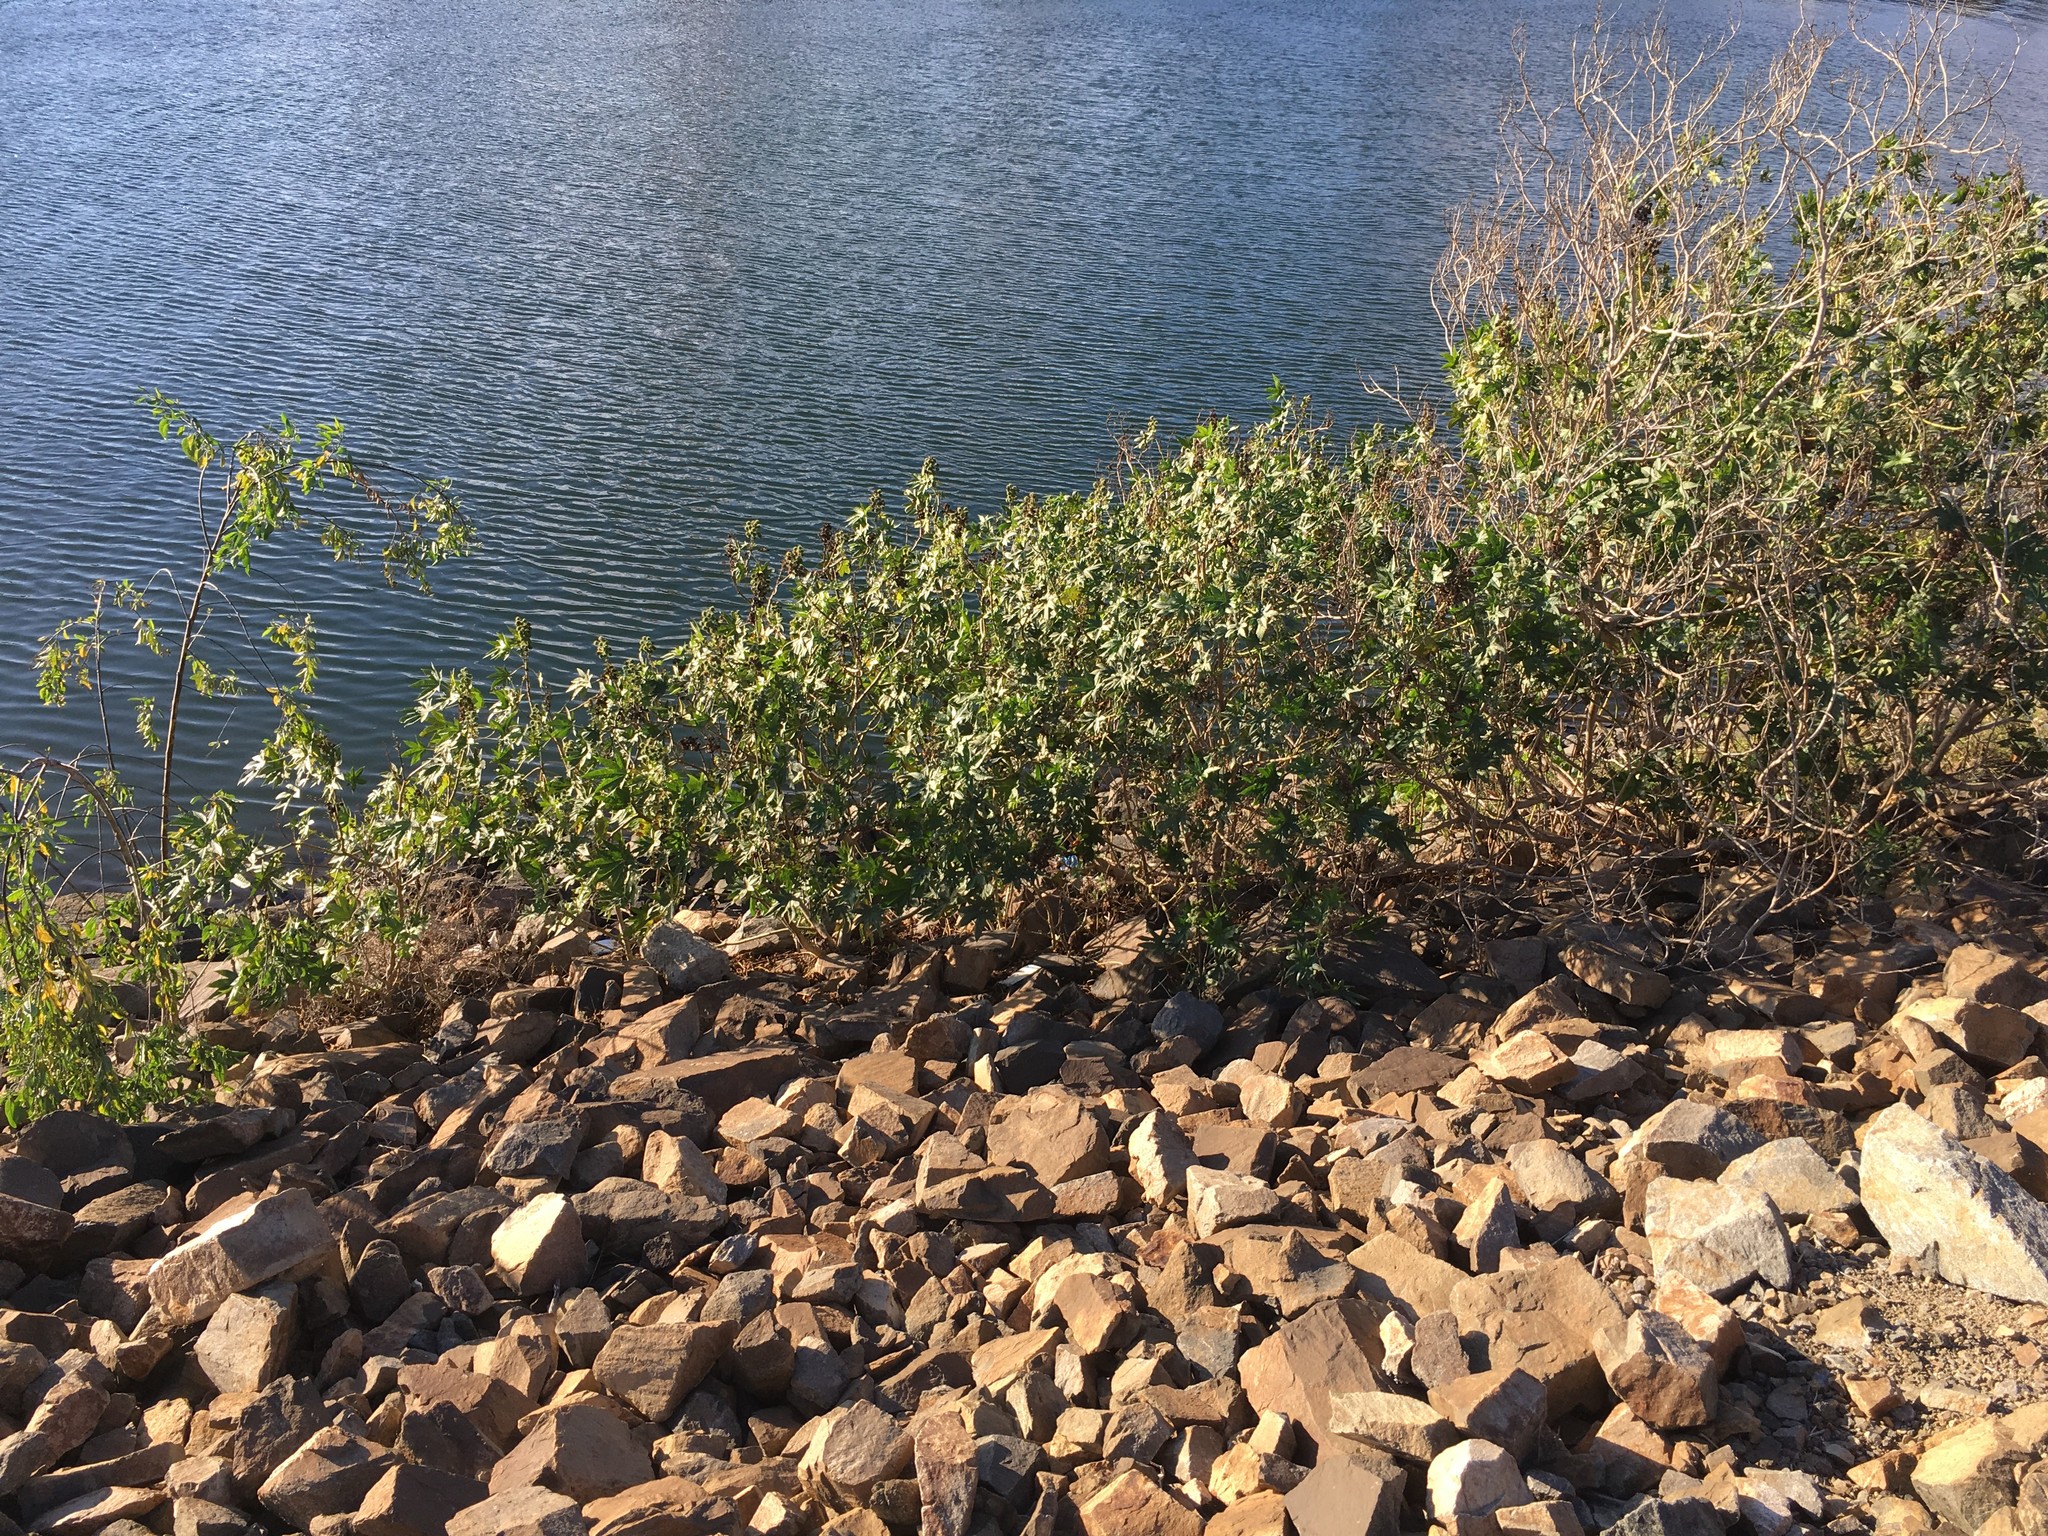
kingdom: Plantae
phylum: Tracheophyta
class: Magnoliopsida
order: Malpighiales
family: Euphorbiaceae
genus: Ricinus
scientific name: Ricinus communis
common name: Castor-oil-plant
